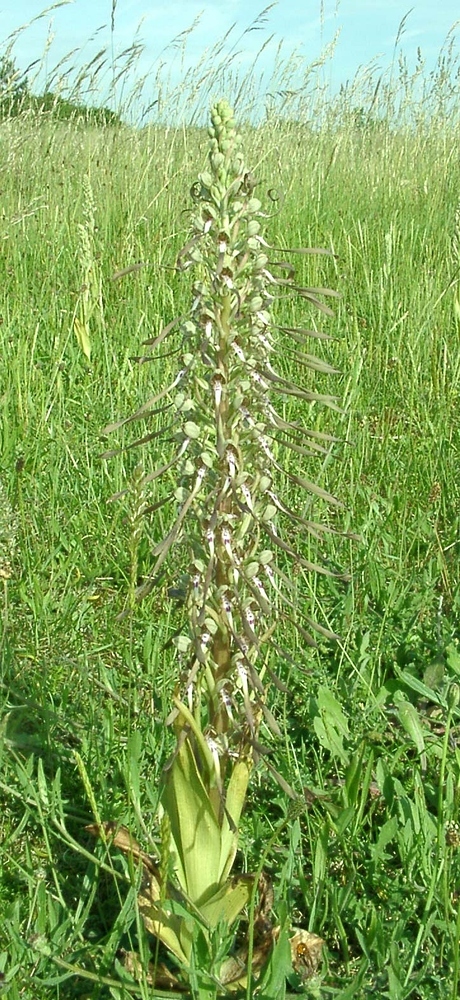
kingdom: Plantae
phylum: Tracheophyta
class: Liliopsida
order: Asparagales
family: Orchidaceae
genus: Himantoglossum
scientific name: Himantoglossum hircinum
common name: Lizard orchid
